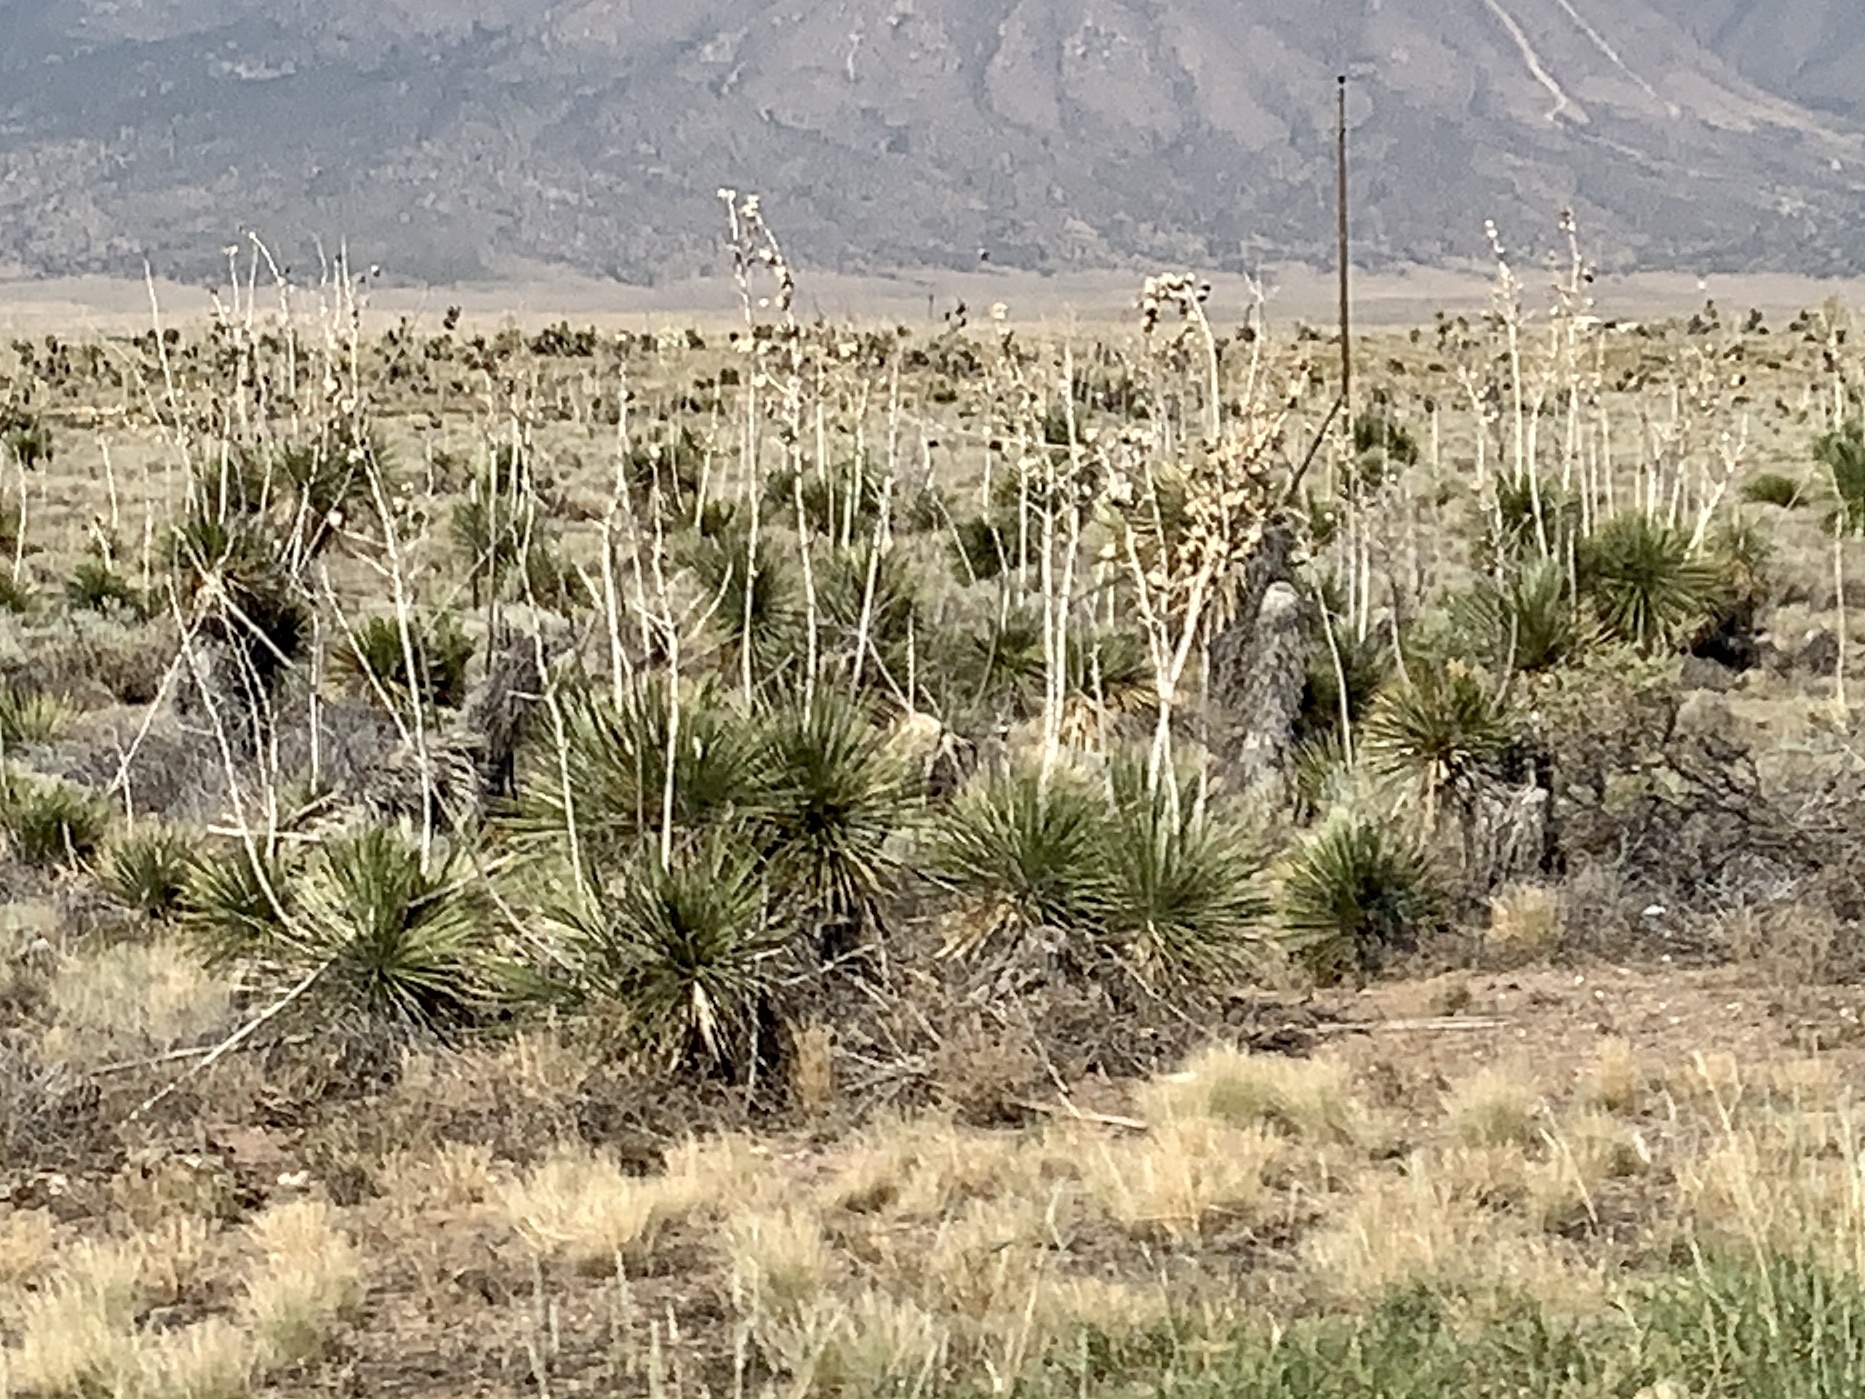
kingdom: Plantae
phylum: Tracheophyta
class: Liliopsida
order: Asparagales
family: Asparagaceae
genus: Yucca
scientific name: Yucca elata
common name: Palmella
